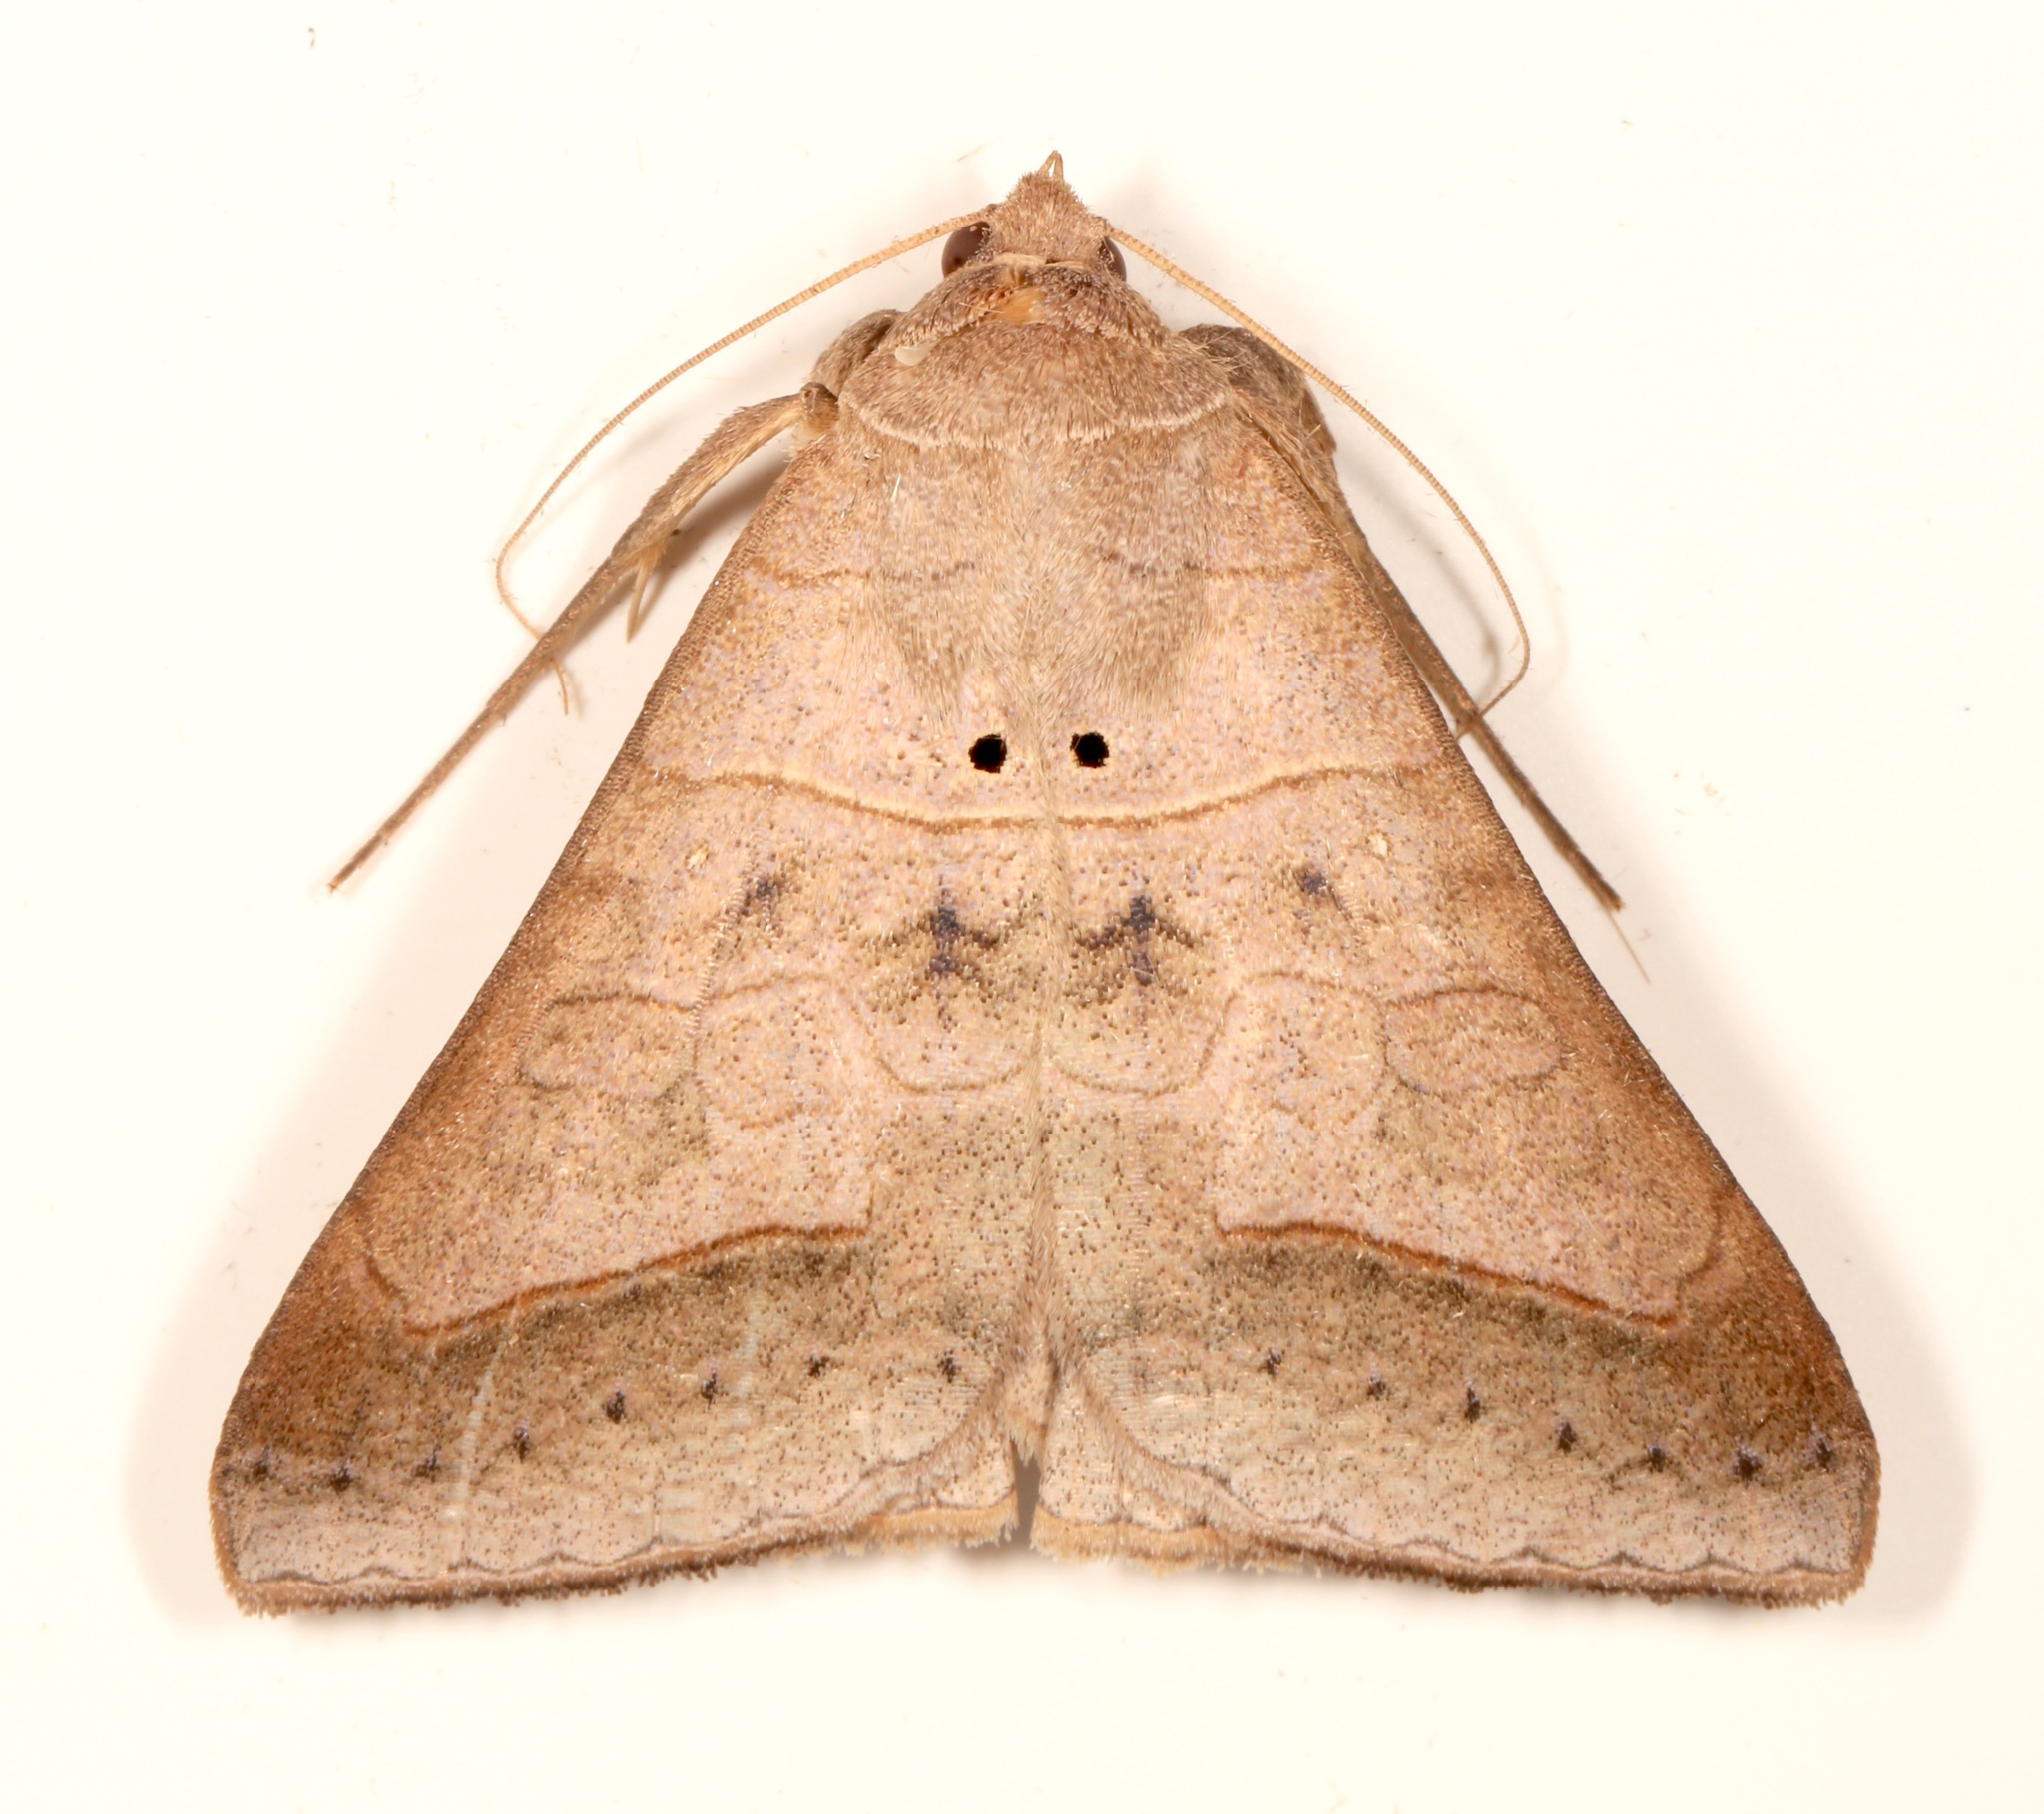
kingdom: Animalia
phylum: Arthropoda
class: Insecta
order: Lepidoptera
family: Erebidae
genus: Mocis
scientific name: Mocis marcida
